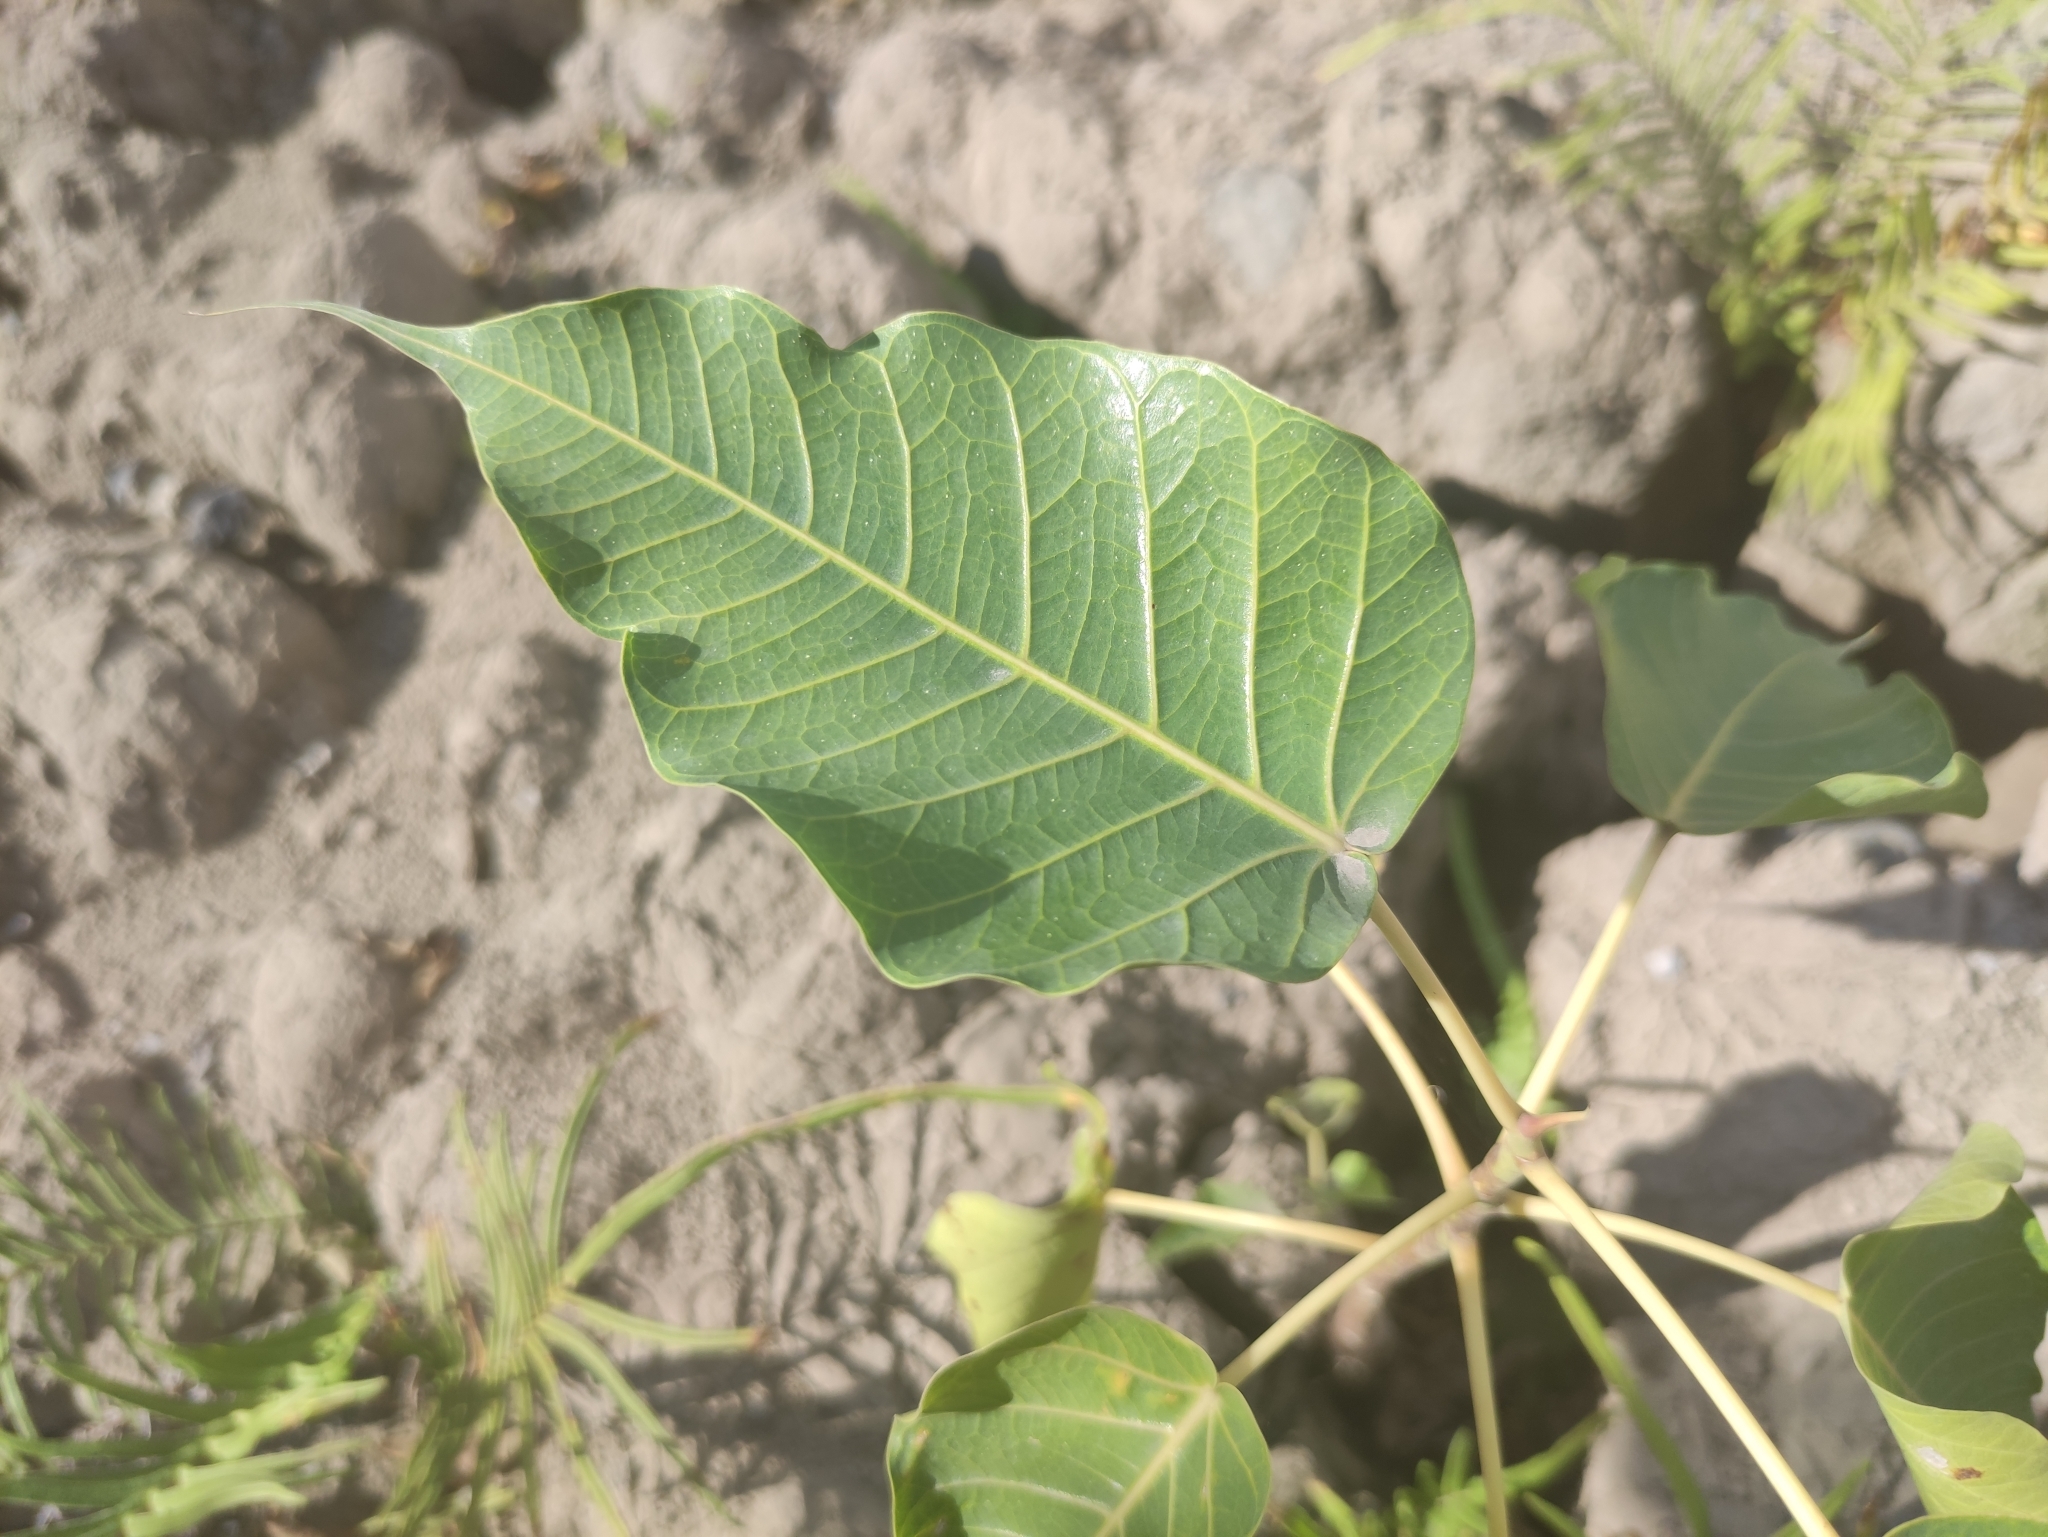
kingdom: Plantae
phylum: Tracheophyta
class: Magnoliopsida
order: Rosales
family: Moraceae
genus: Ficus
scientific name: Ficus religiosa
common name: Bodhi tree
